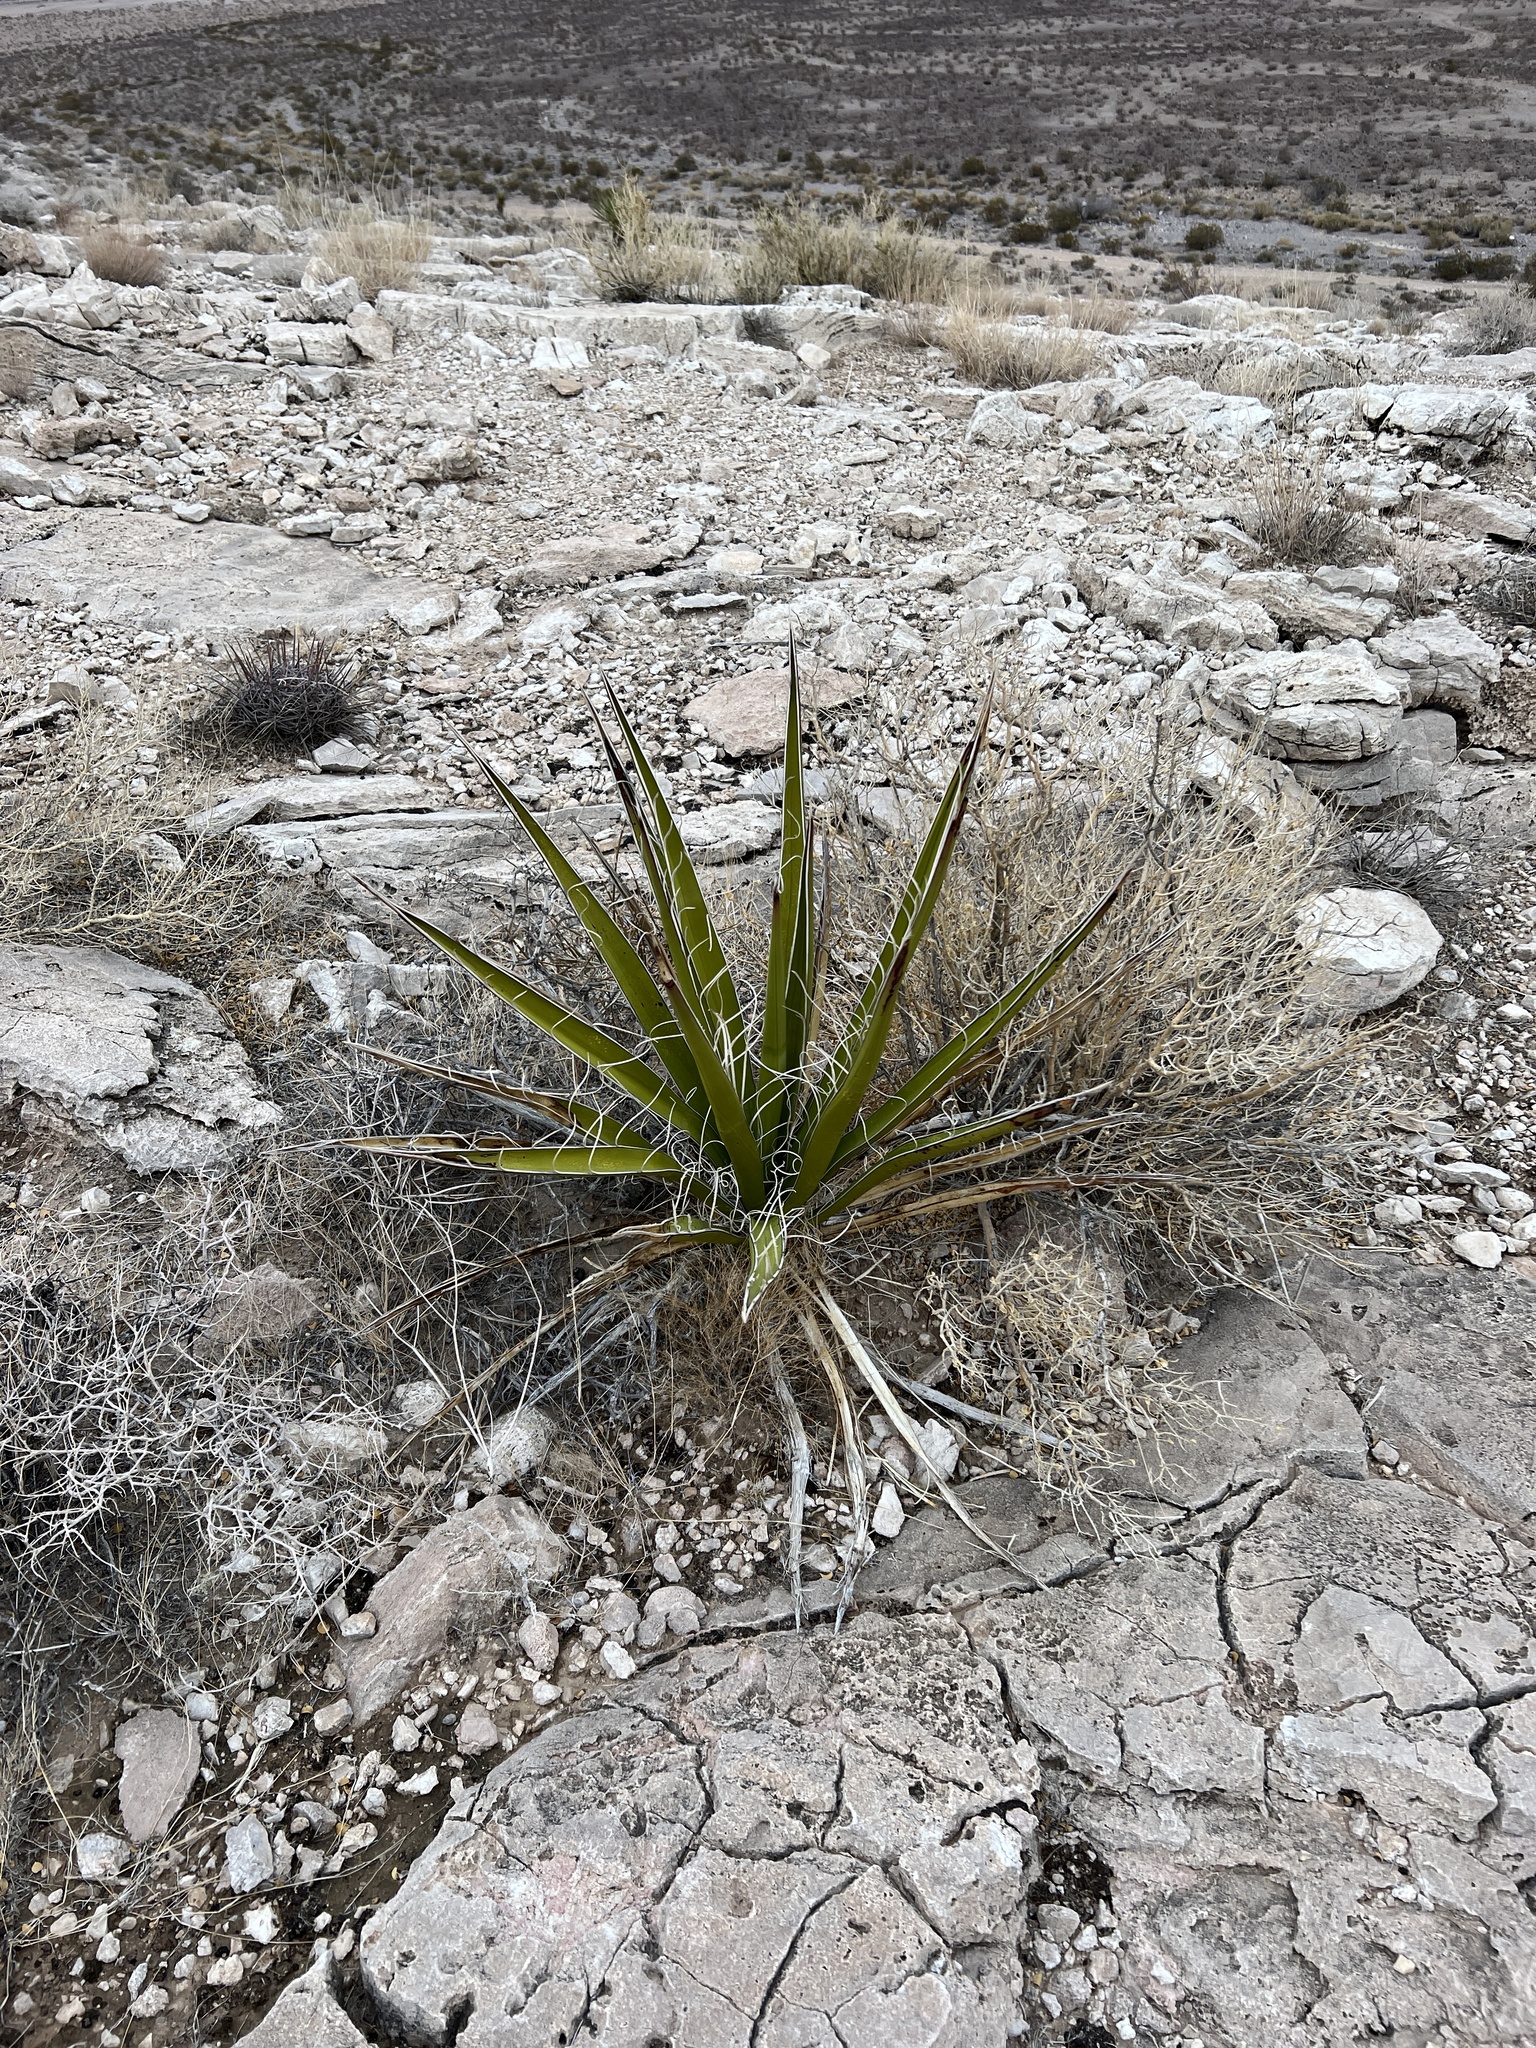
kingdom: Plantae
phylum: Tracheophyta
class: Liliopsida
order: Asparagales
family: Asparagaceae
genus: Yucca
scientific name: Yucca schidigera
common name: Mojave yucca
